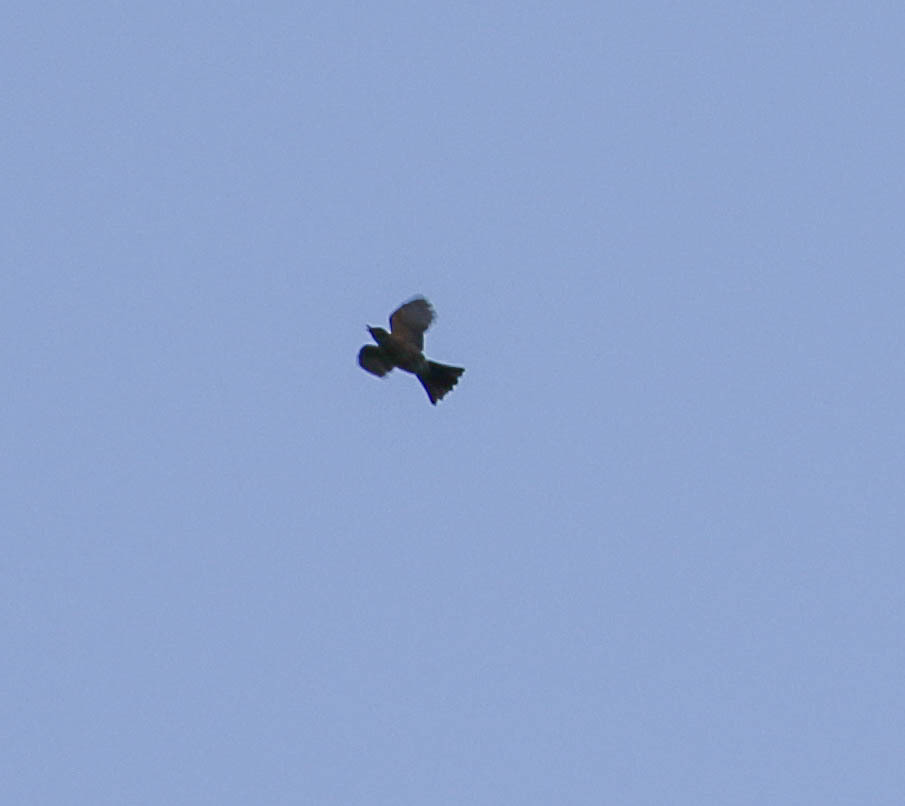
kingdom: Animalia
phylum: Chordata
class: Aves
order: Passeriformes
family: Turdidae
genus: Turdus
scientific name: Turdus migratorius
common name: American robin
